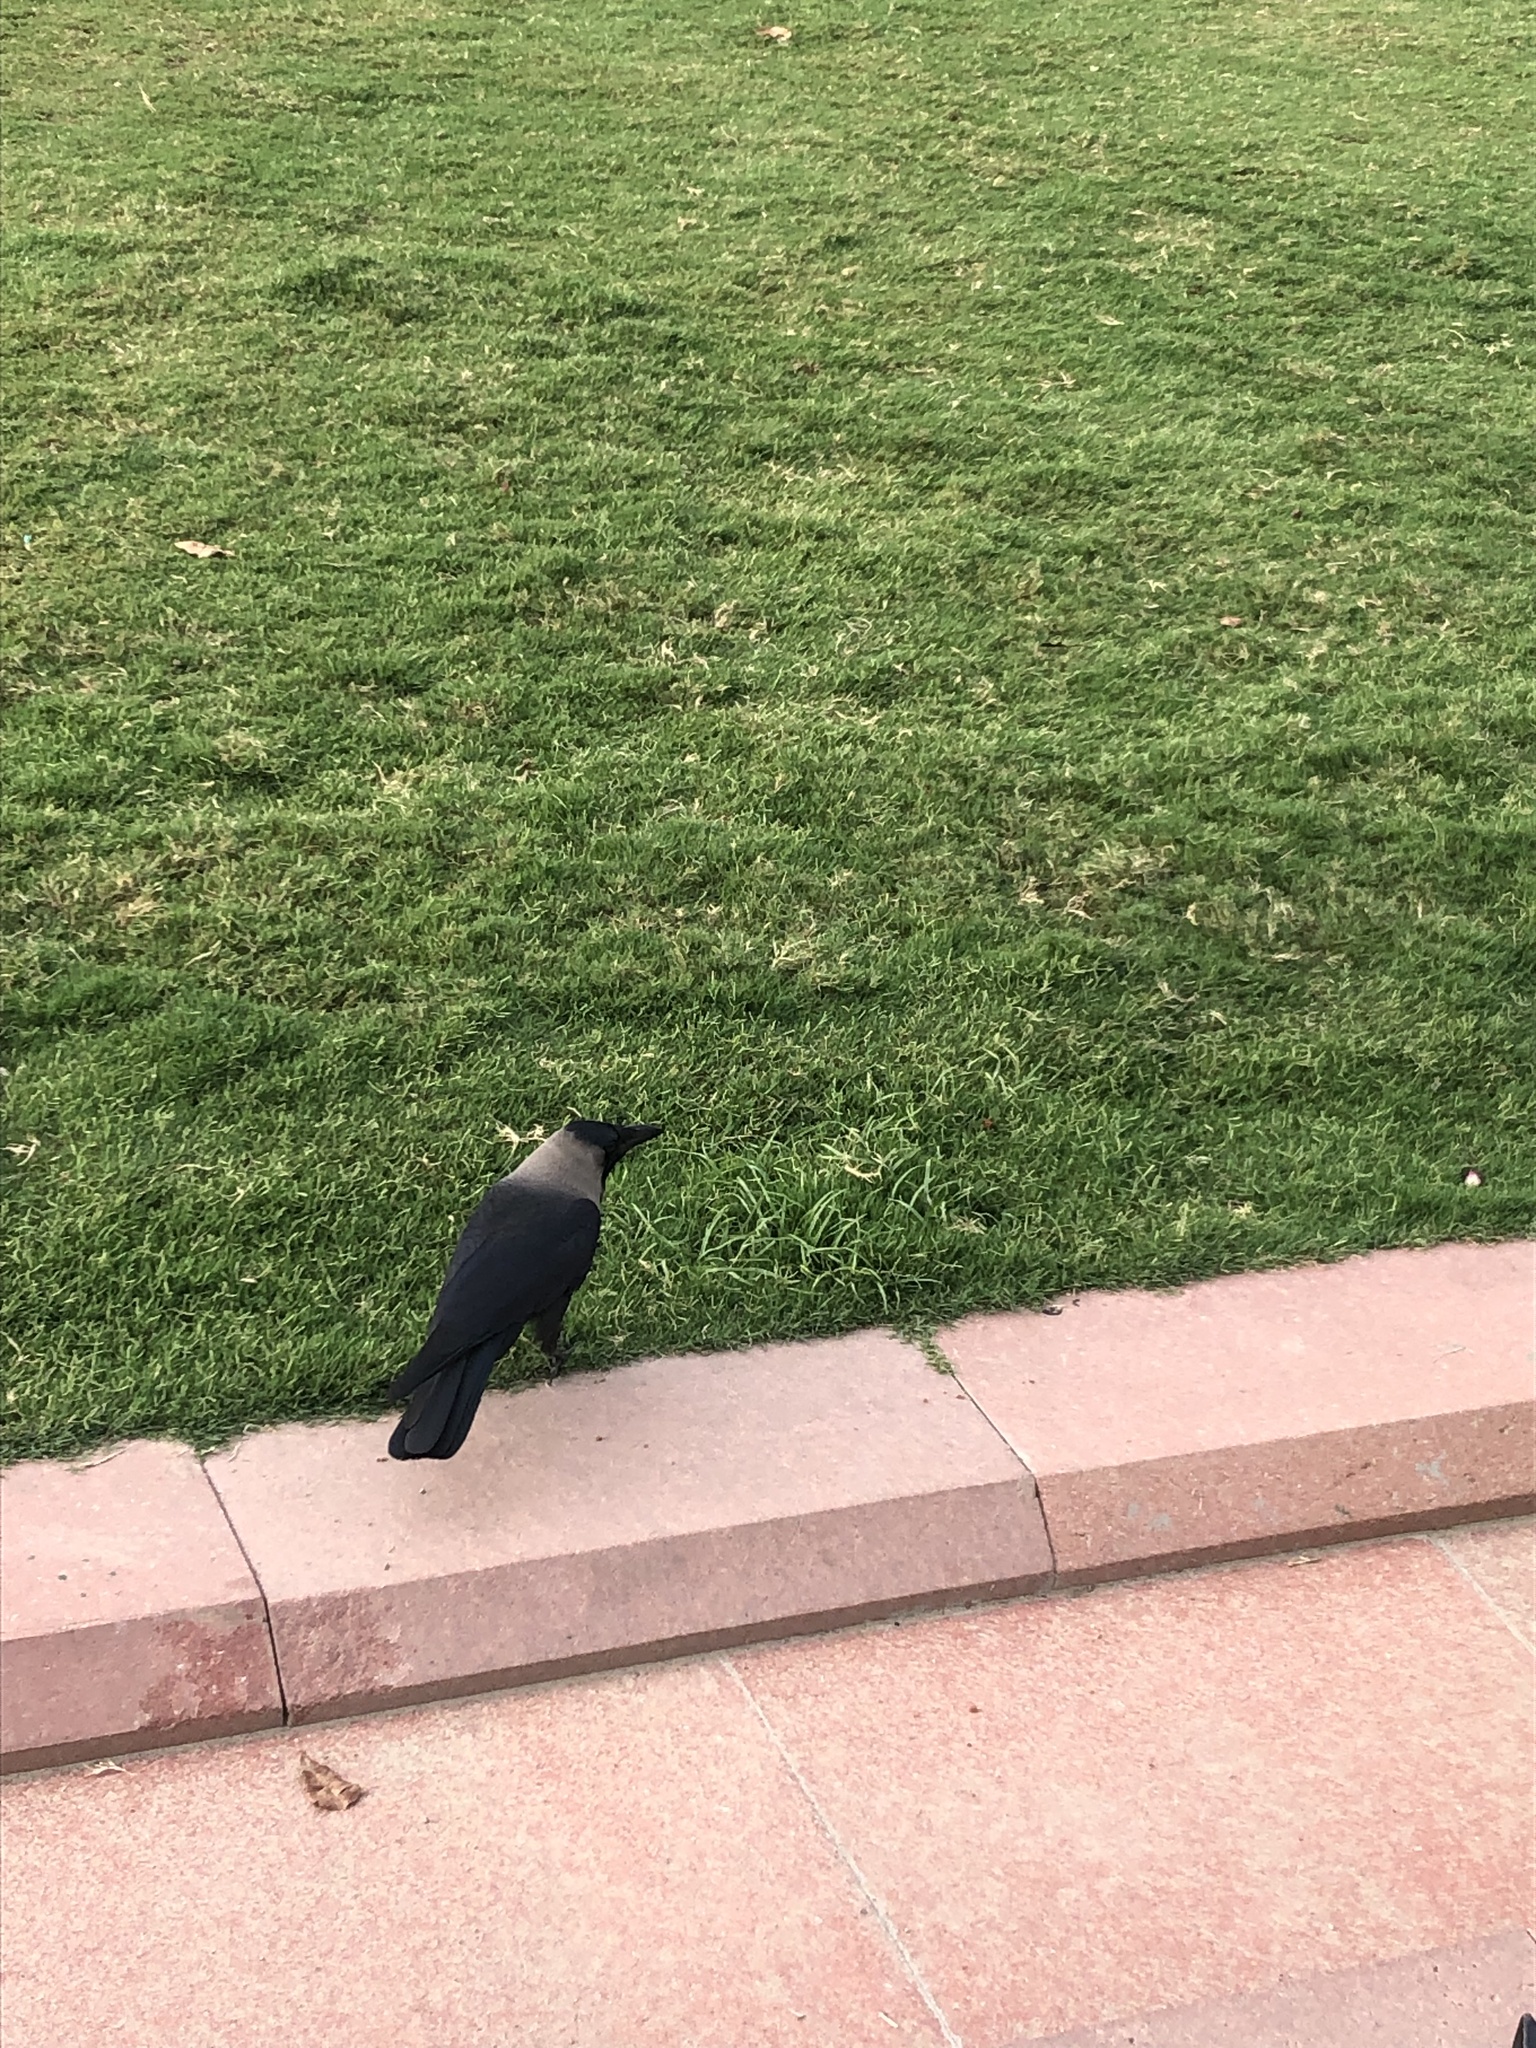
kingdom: Animalia
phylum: Chordata
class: Aves
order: Passeriformes
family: Corvidae
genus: Corvus
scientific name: Corvus splendens
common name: House crow
